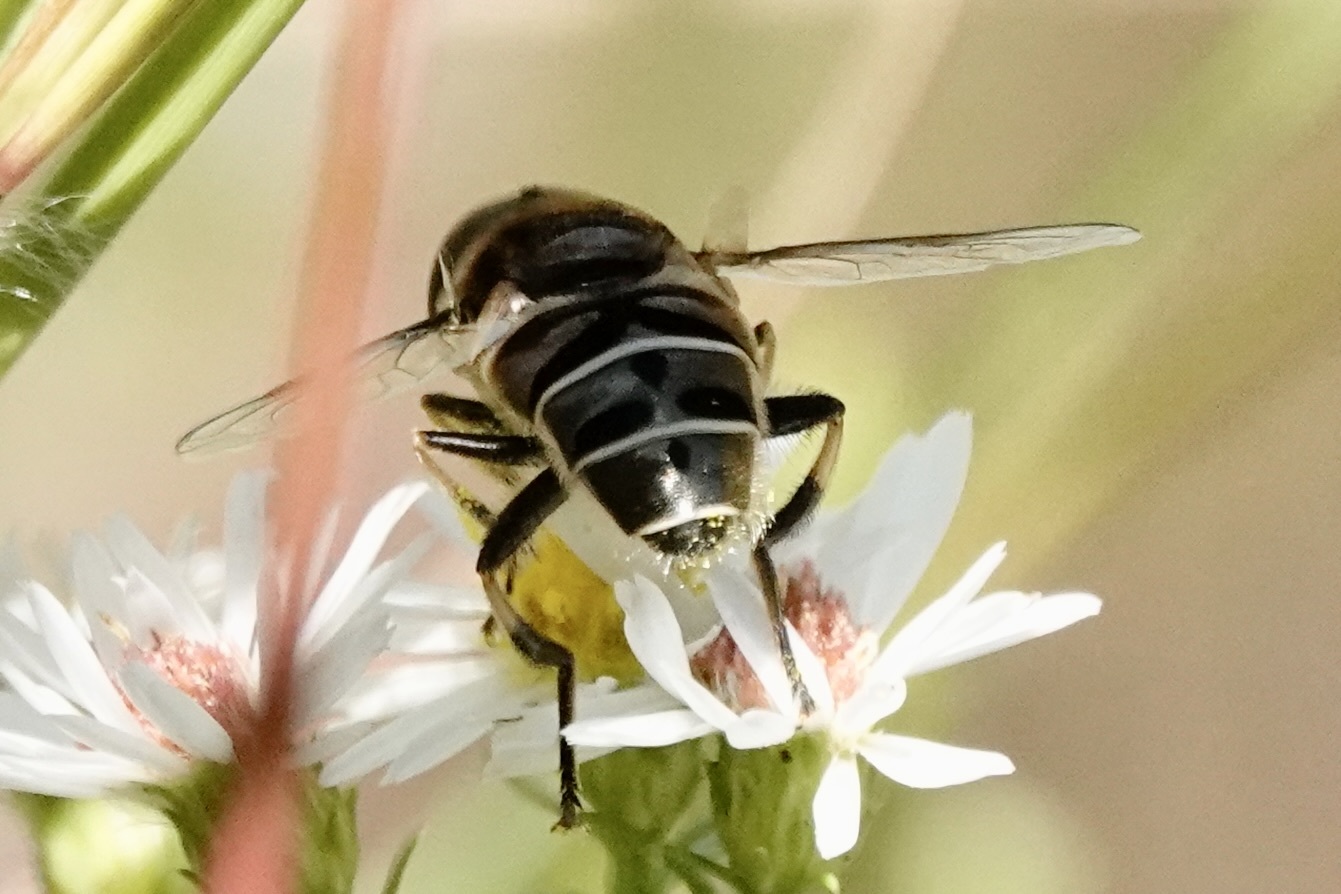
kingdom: Animalia
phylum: Arthropoda
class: Insecta
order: Diptera
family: Syrphidae
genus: Eristalis
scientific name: Eristalis dimidiata
